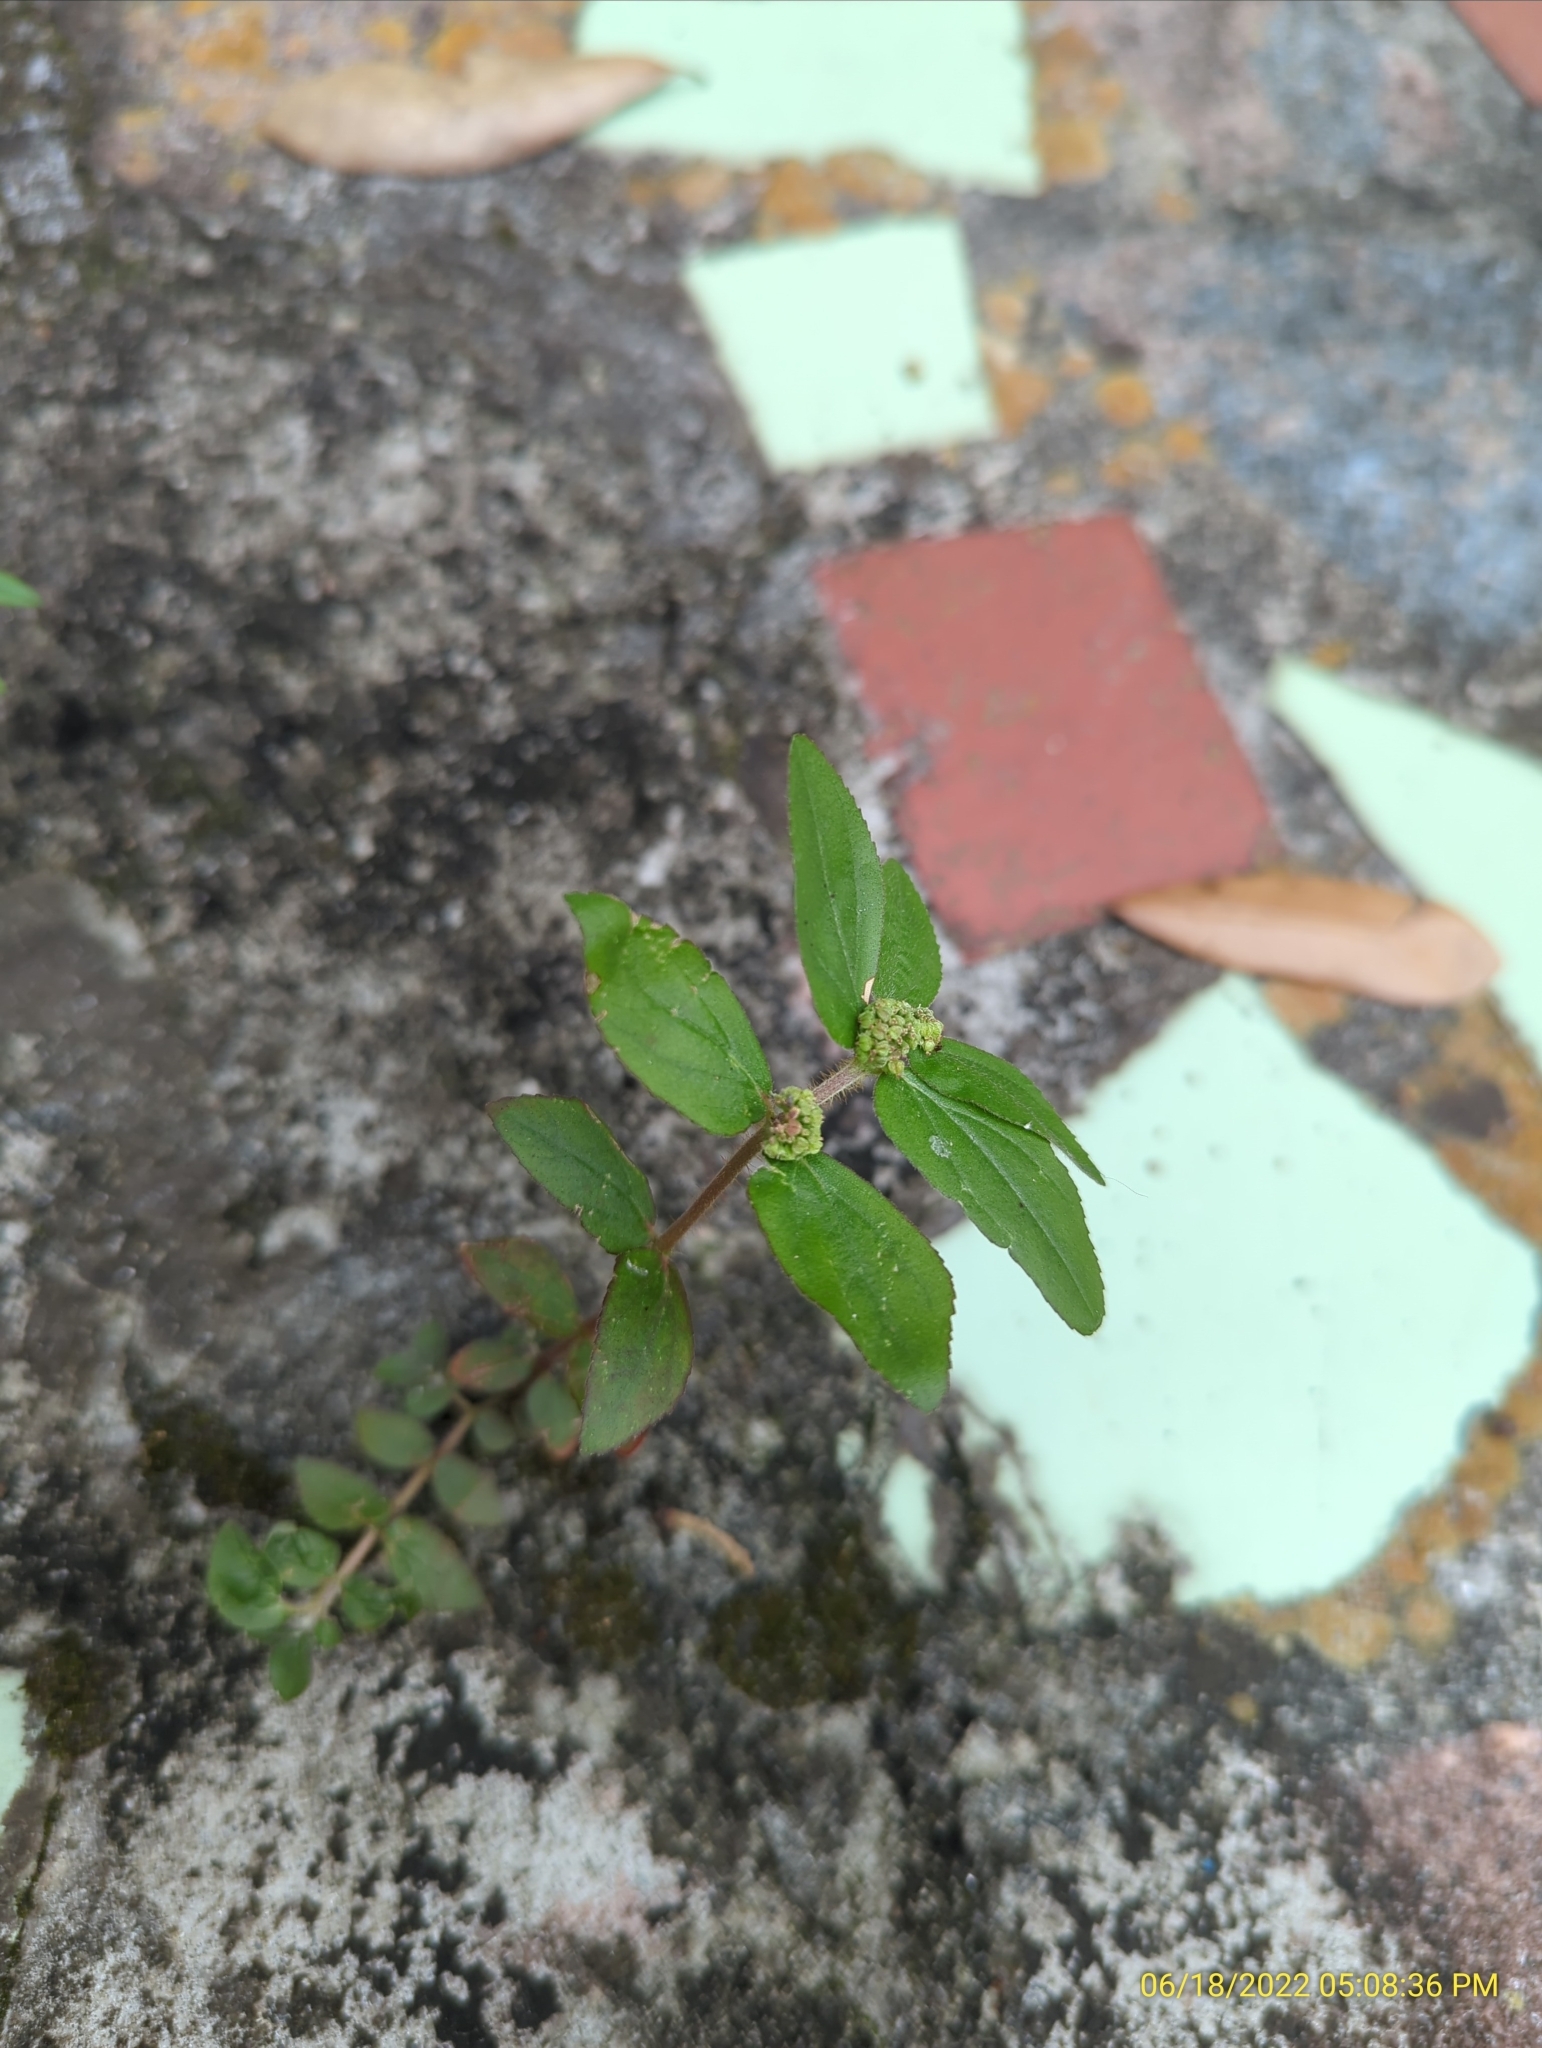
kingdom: Plantae
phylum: Tracheophyta
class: Magnoliopsida
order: Malpighiales
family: Euphorbiaceae
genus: Euphorbia
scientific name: Euphorbia hirta
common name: Pillpod sandmat
